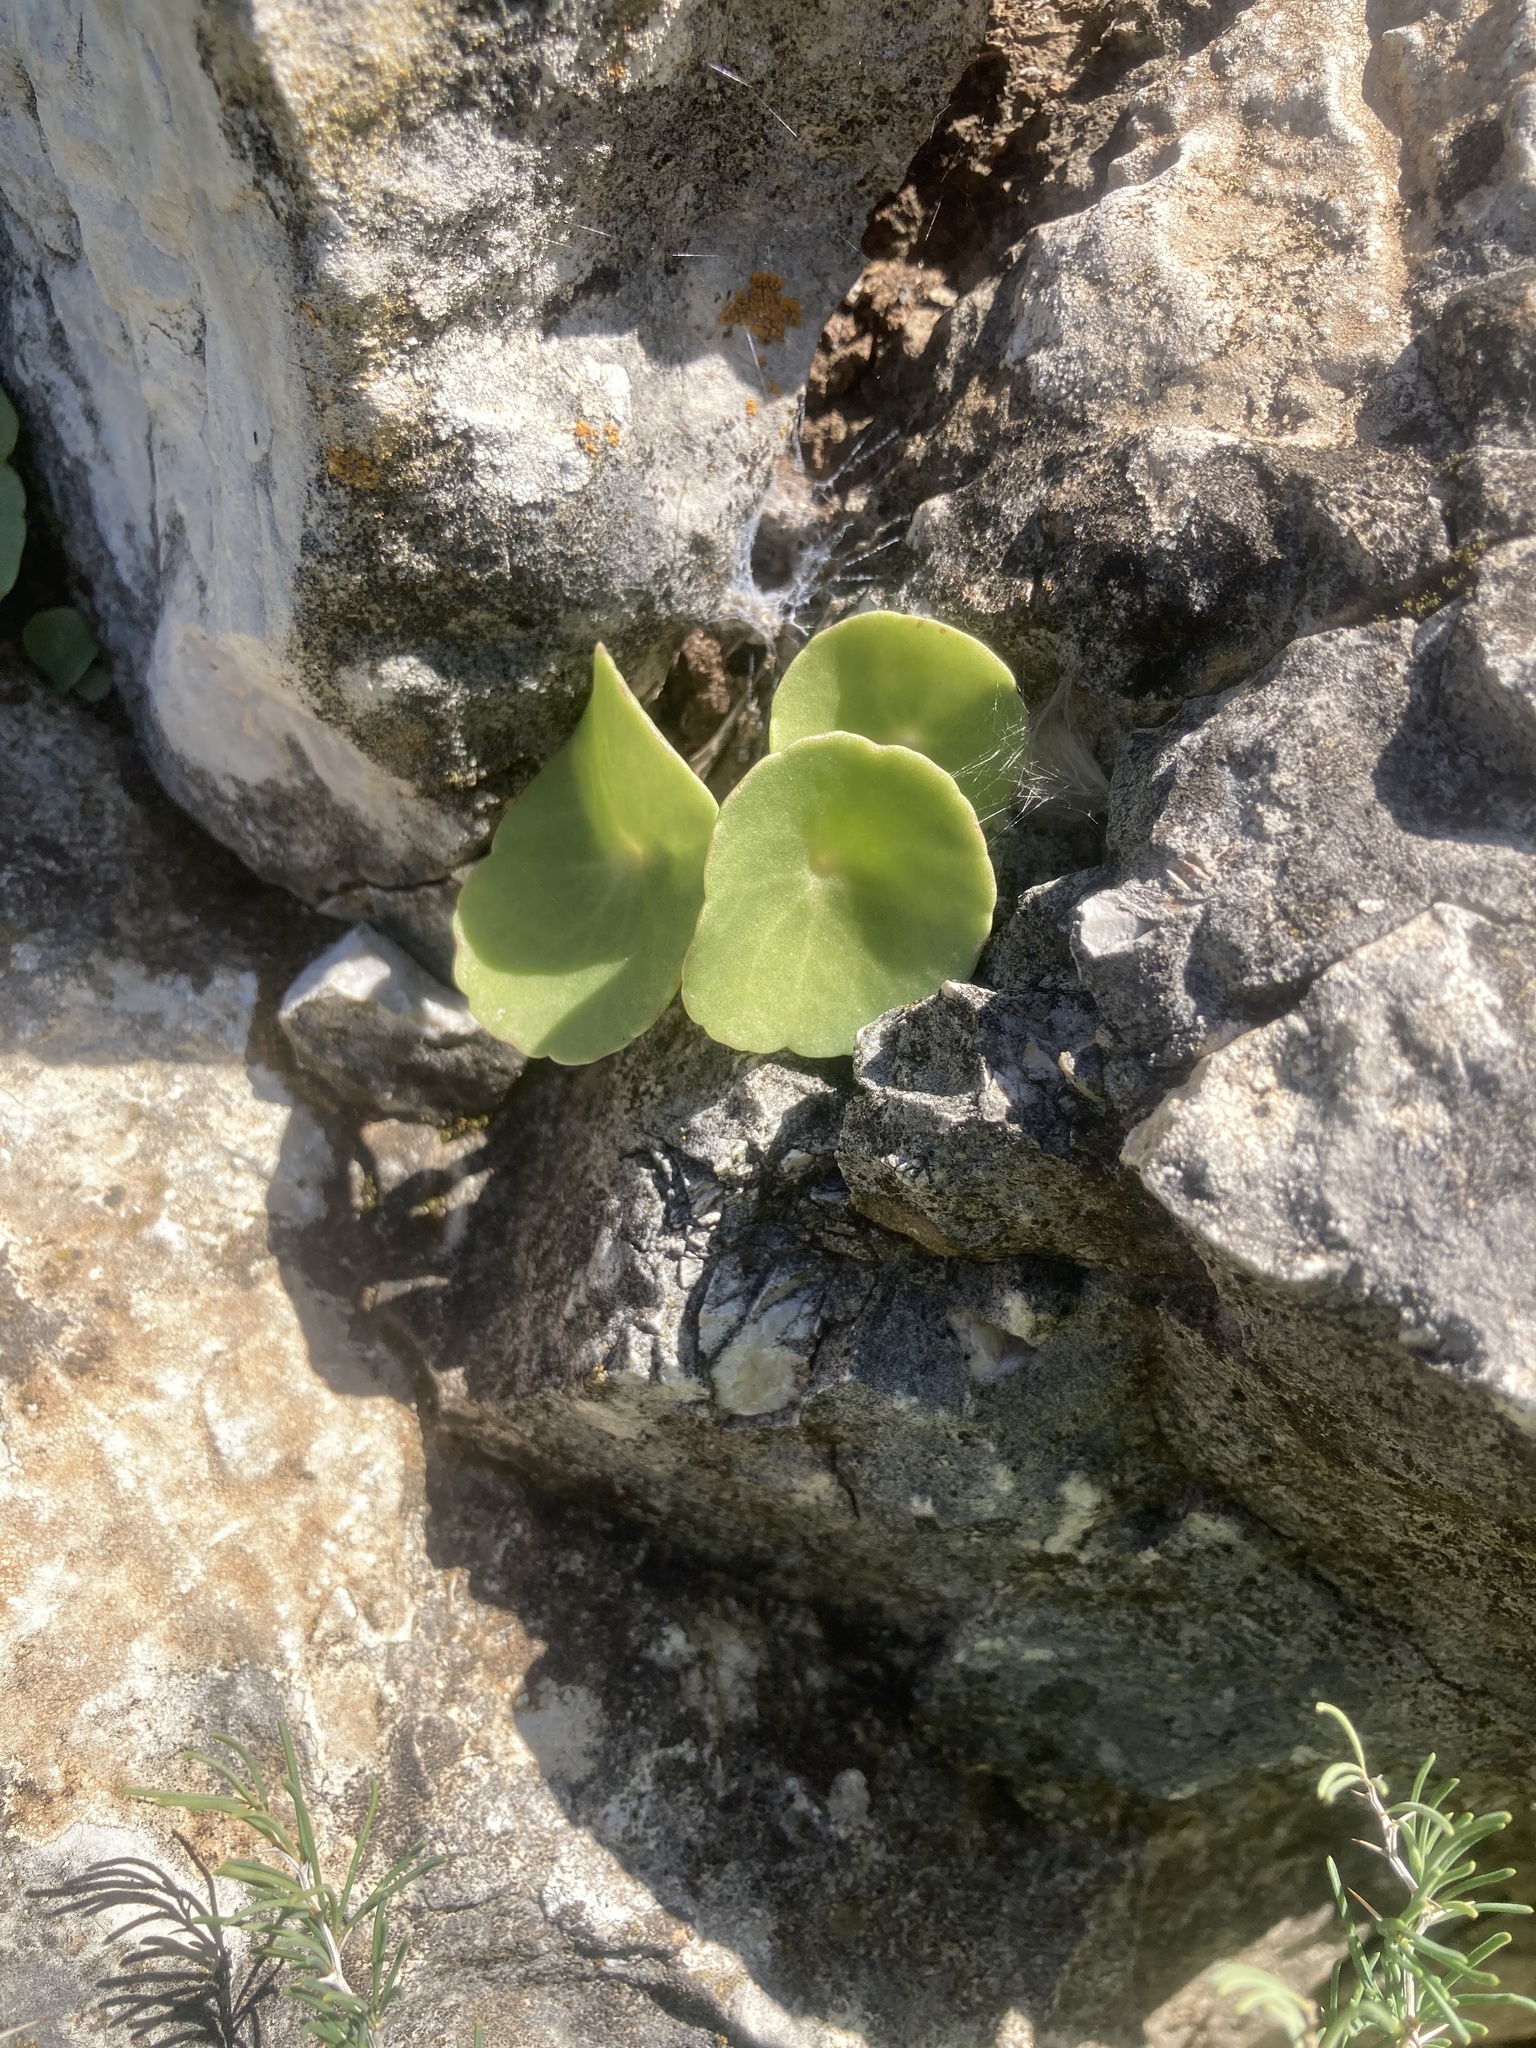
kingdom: Plantae
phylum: Tracheophyta
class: Magnoliopsida
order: Saxifragales
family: Crassulaceae
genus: Umbilicus
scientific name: Umbilicus rupestris
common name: Navelwort
